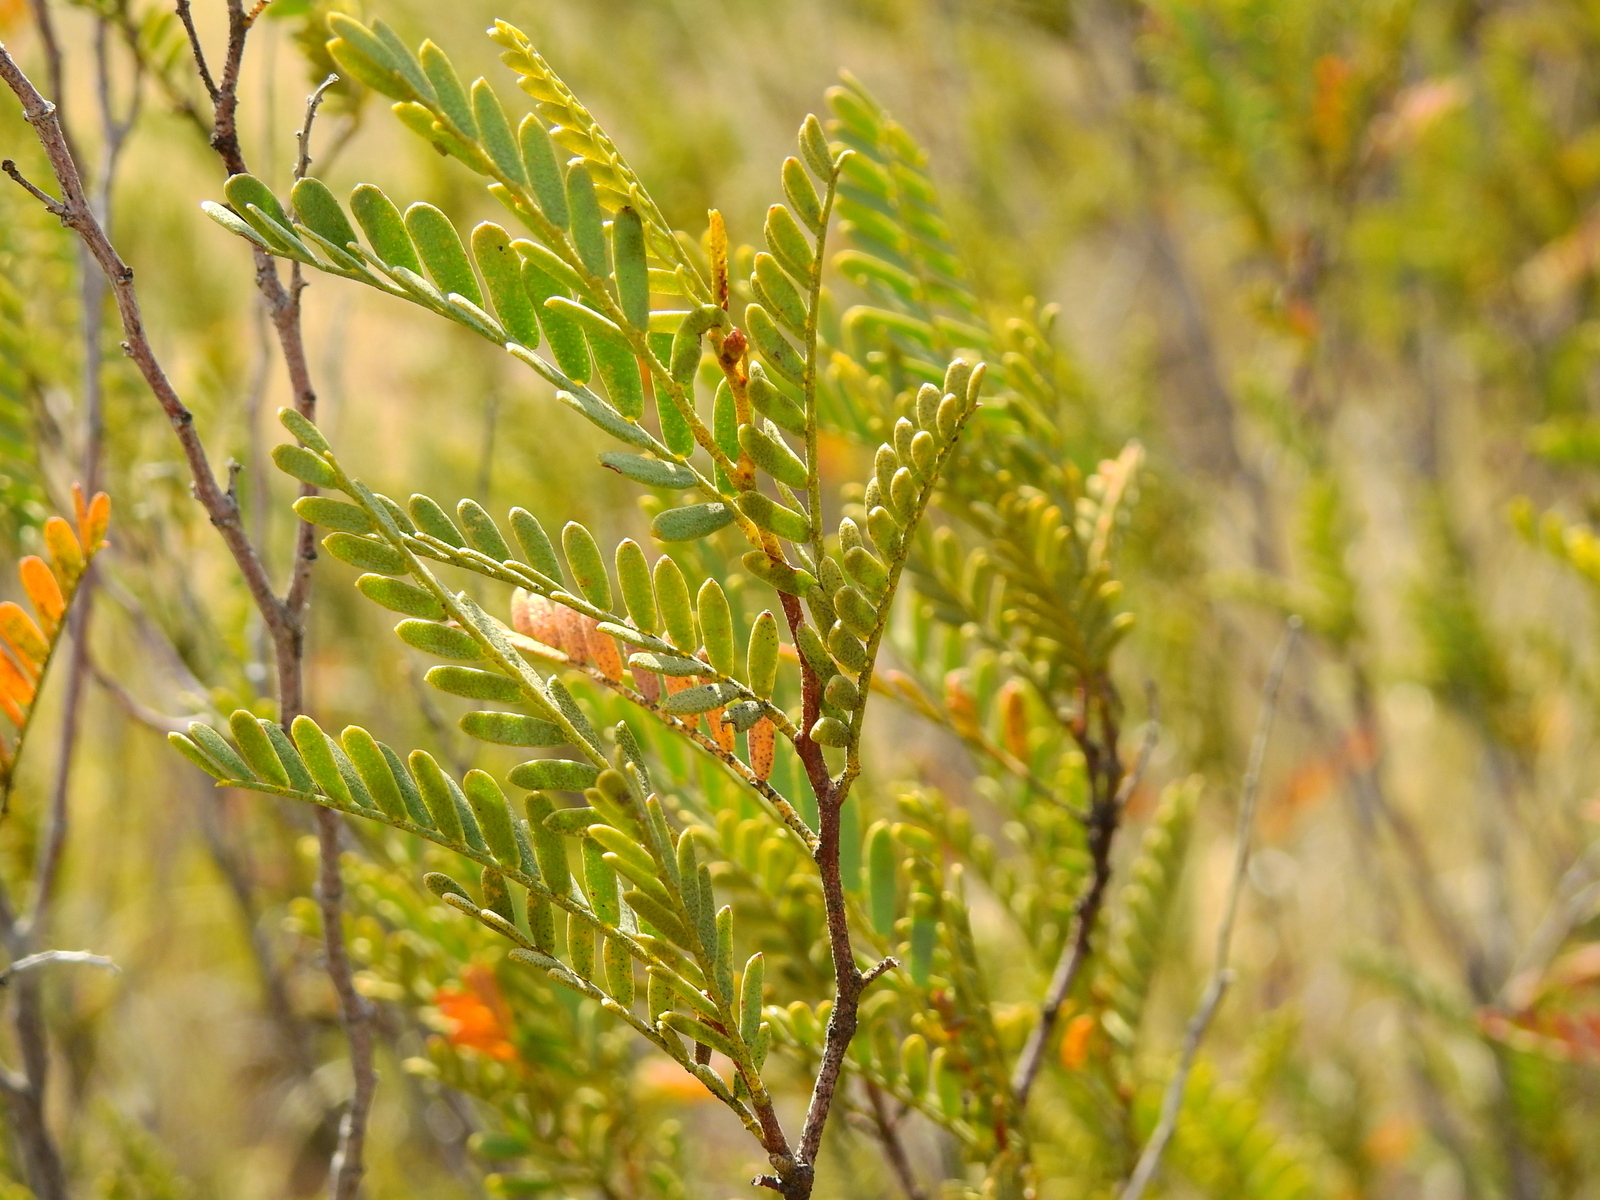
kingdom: Plantae
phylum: Tracheophyta
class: Magnoliopsida
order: Fabales
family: Fabaceae
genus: Zuccagnia
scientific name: Zuccagnia punctata
